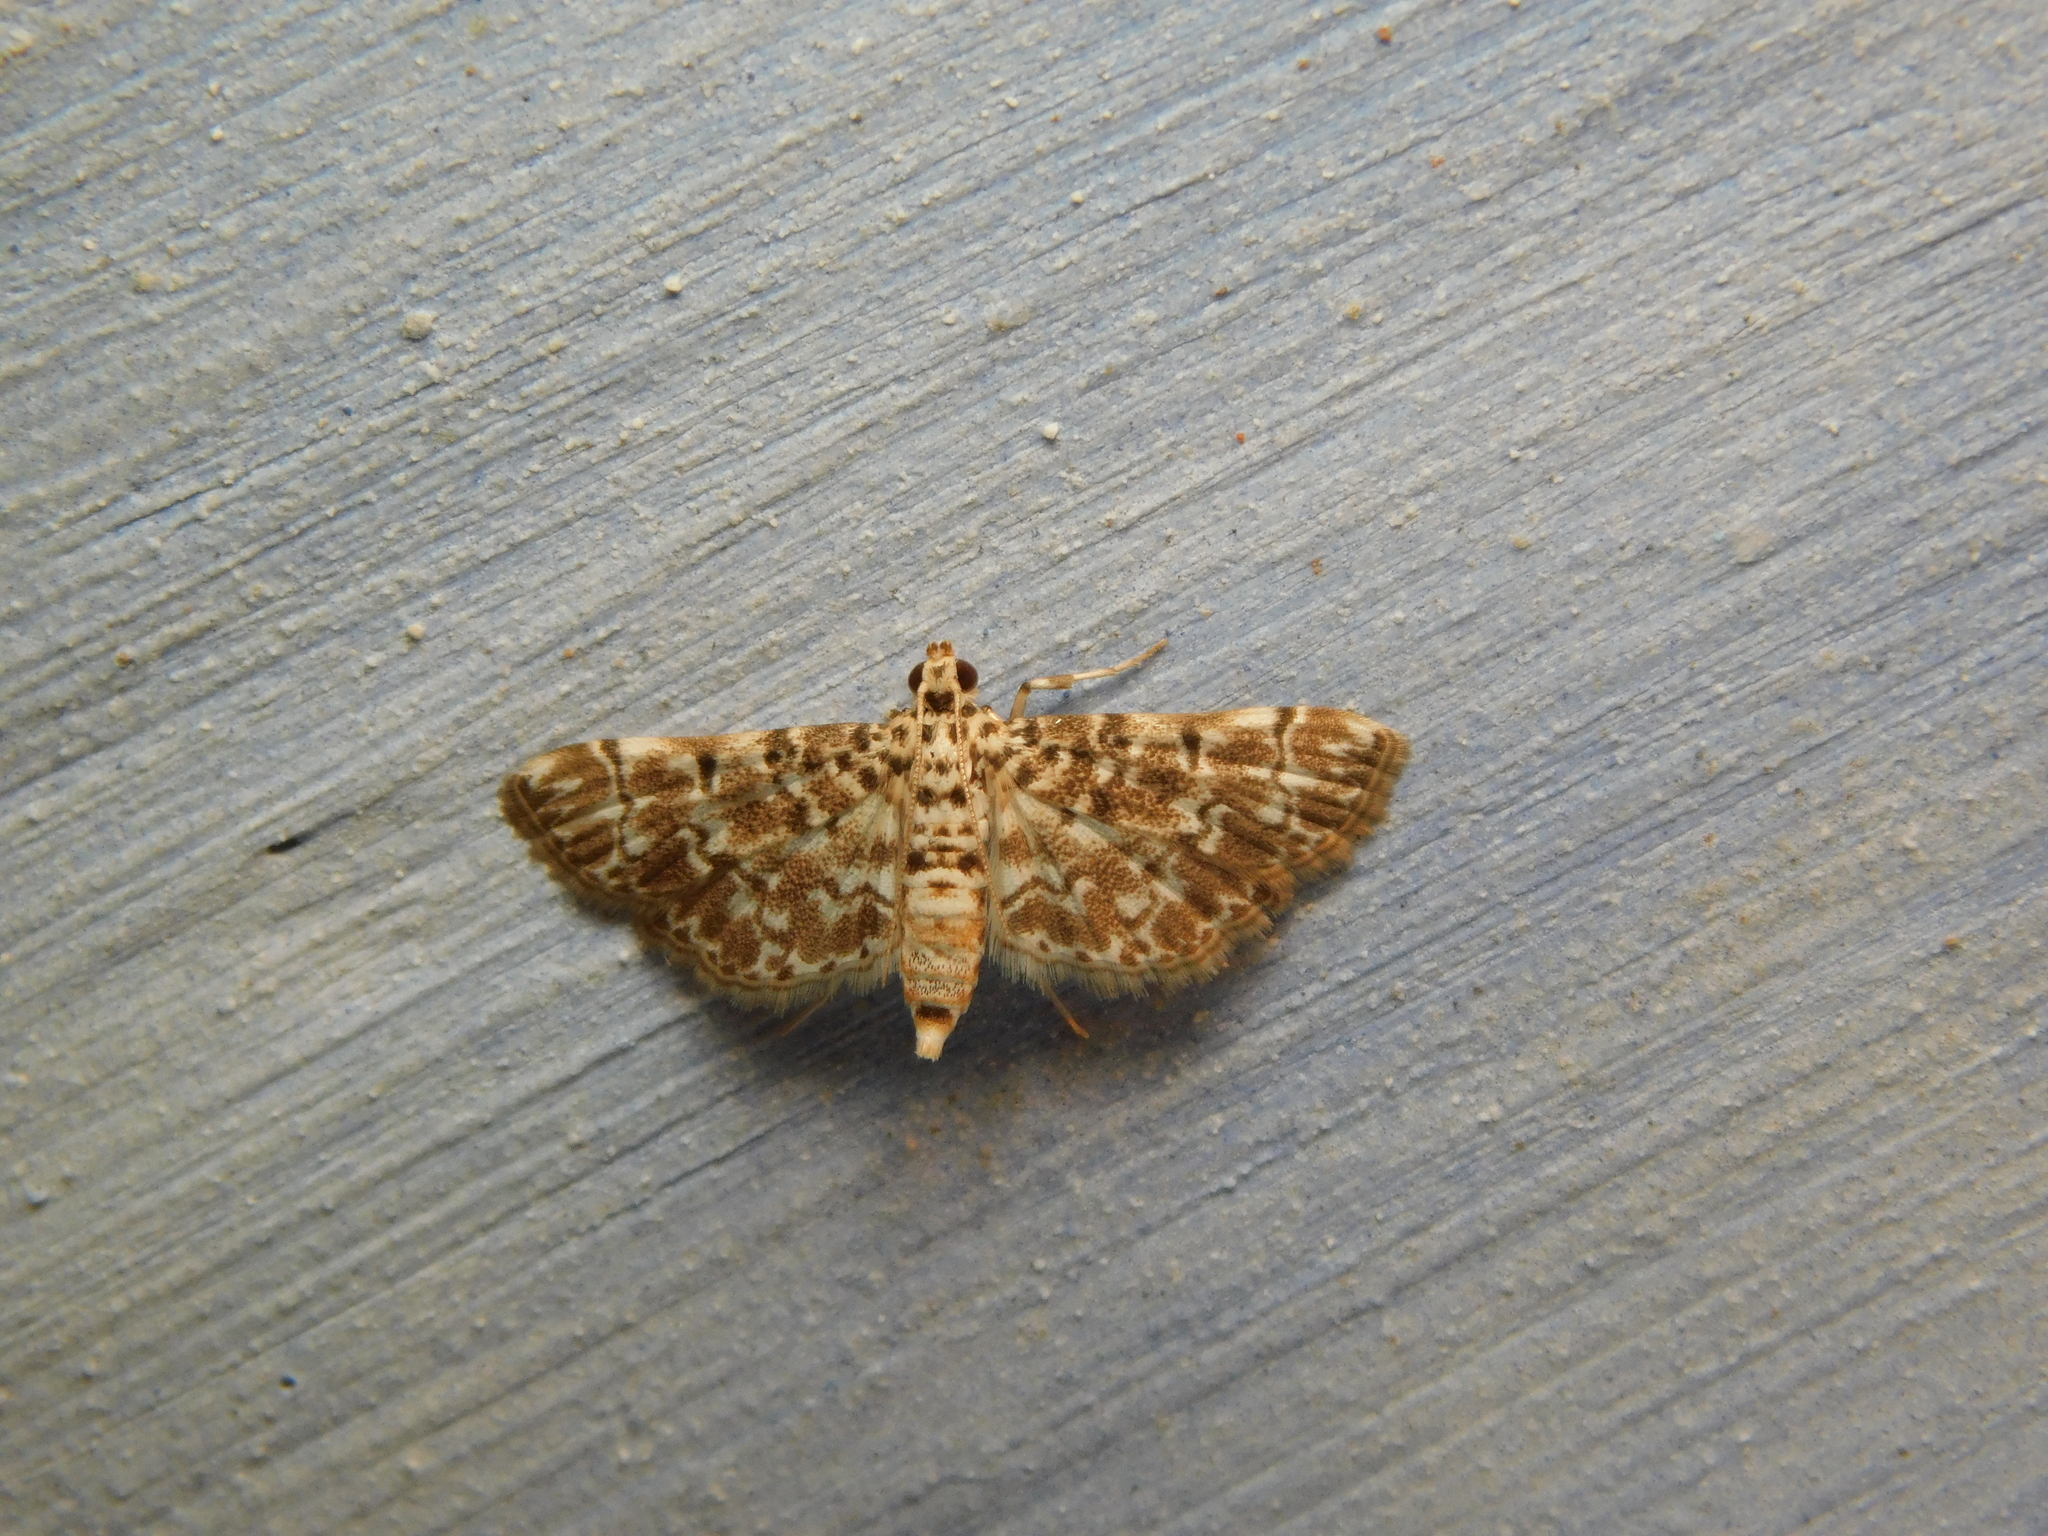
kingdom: Animalia
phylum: Arthropoda
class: Insecta
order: Lepidoptera
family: Crambidae
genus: Metoeca
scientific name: Metoeca foedalis
